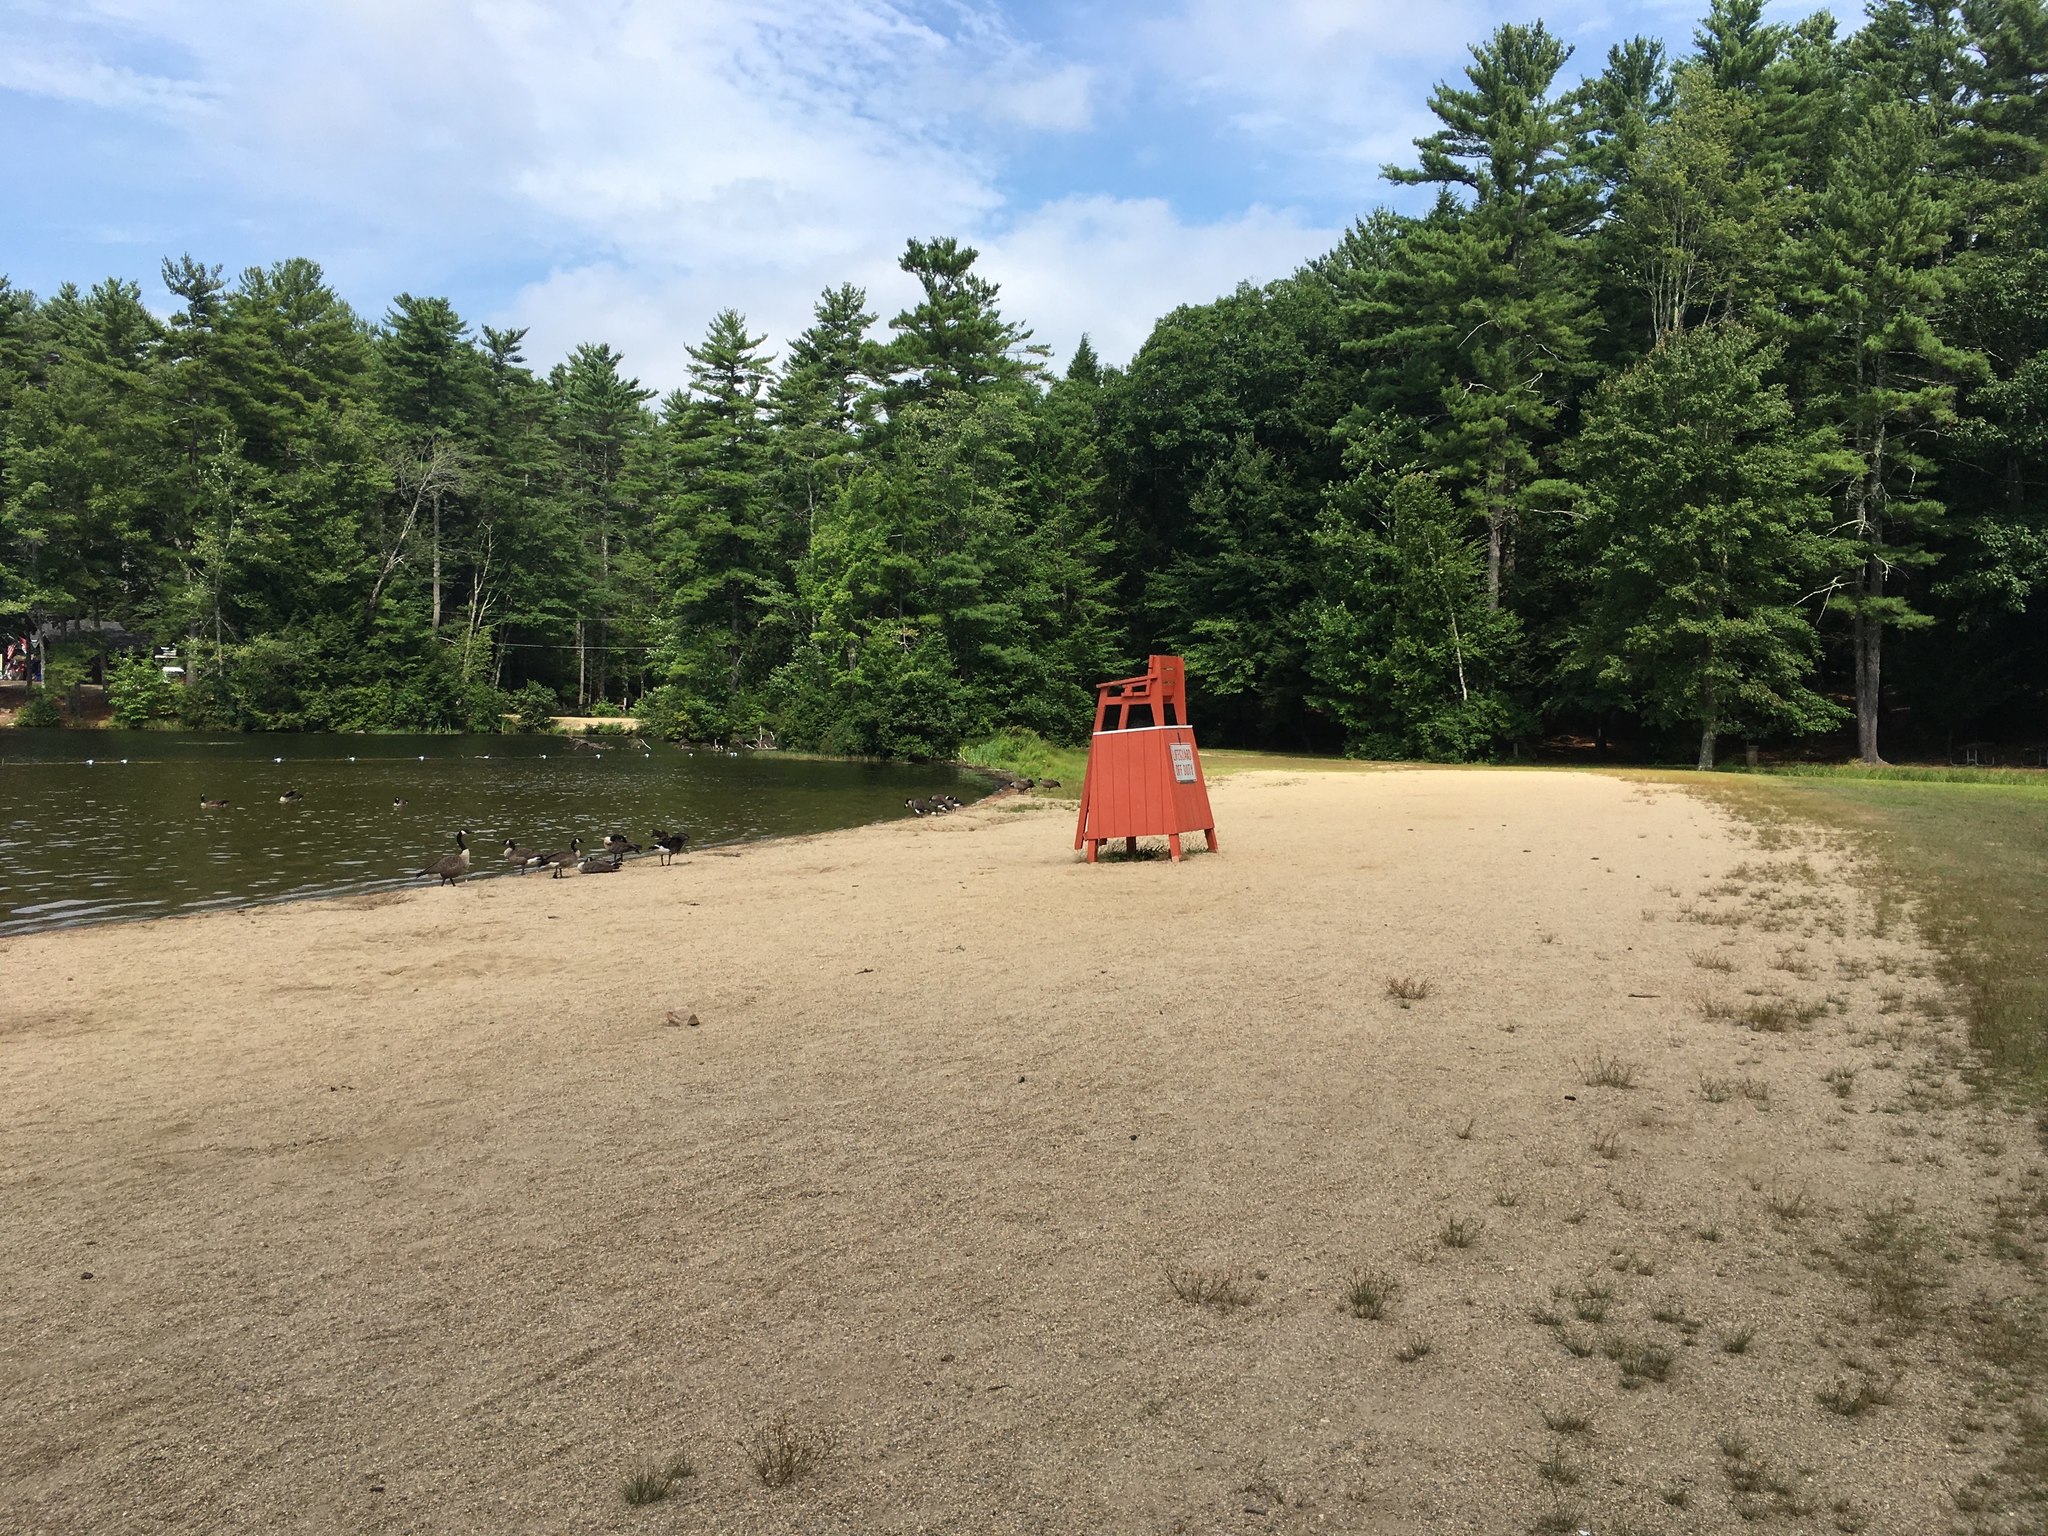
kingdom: Animalia
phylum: Chordata
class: Aves
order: Anseriformes
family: Anatidae
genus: Branta
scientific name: Branta canadensis
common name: Canada goose
